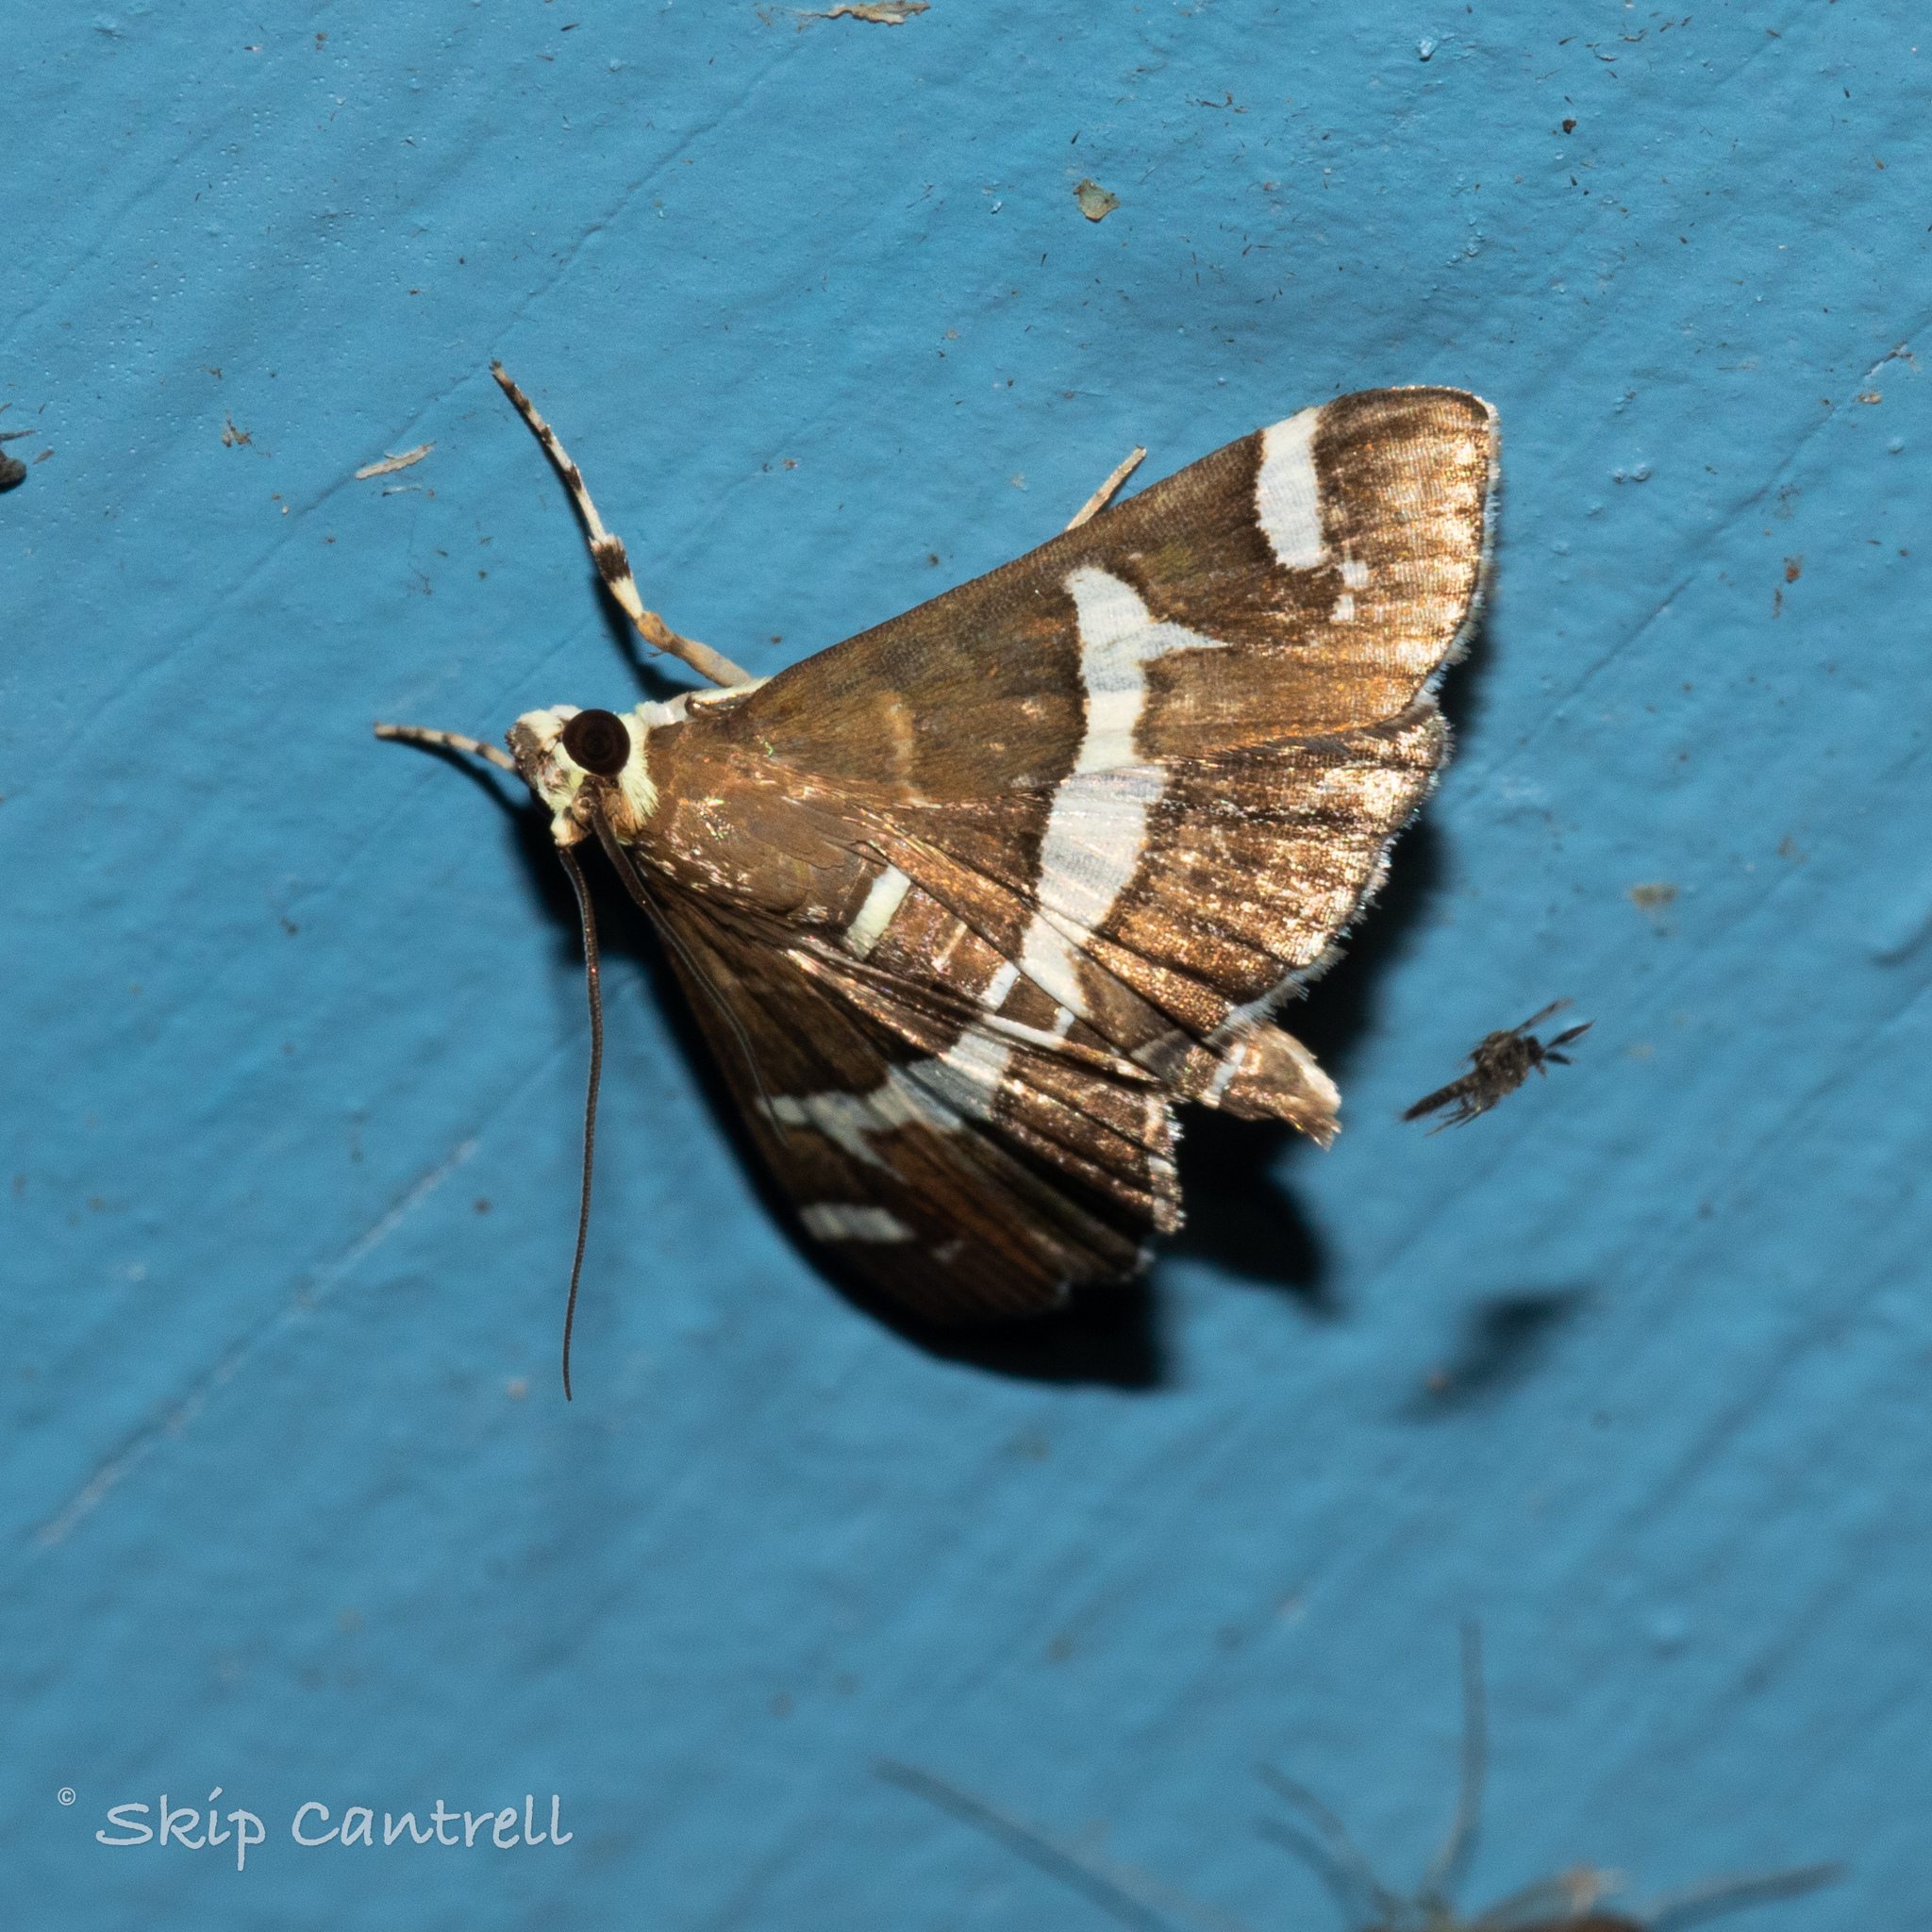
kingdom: Animalia
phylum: Arthropoda
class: Insecta
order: Lepidoptera
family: Crambidae
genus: Spoladea
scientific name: Spoladea recurvalis
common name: Beet webworm moth
